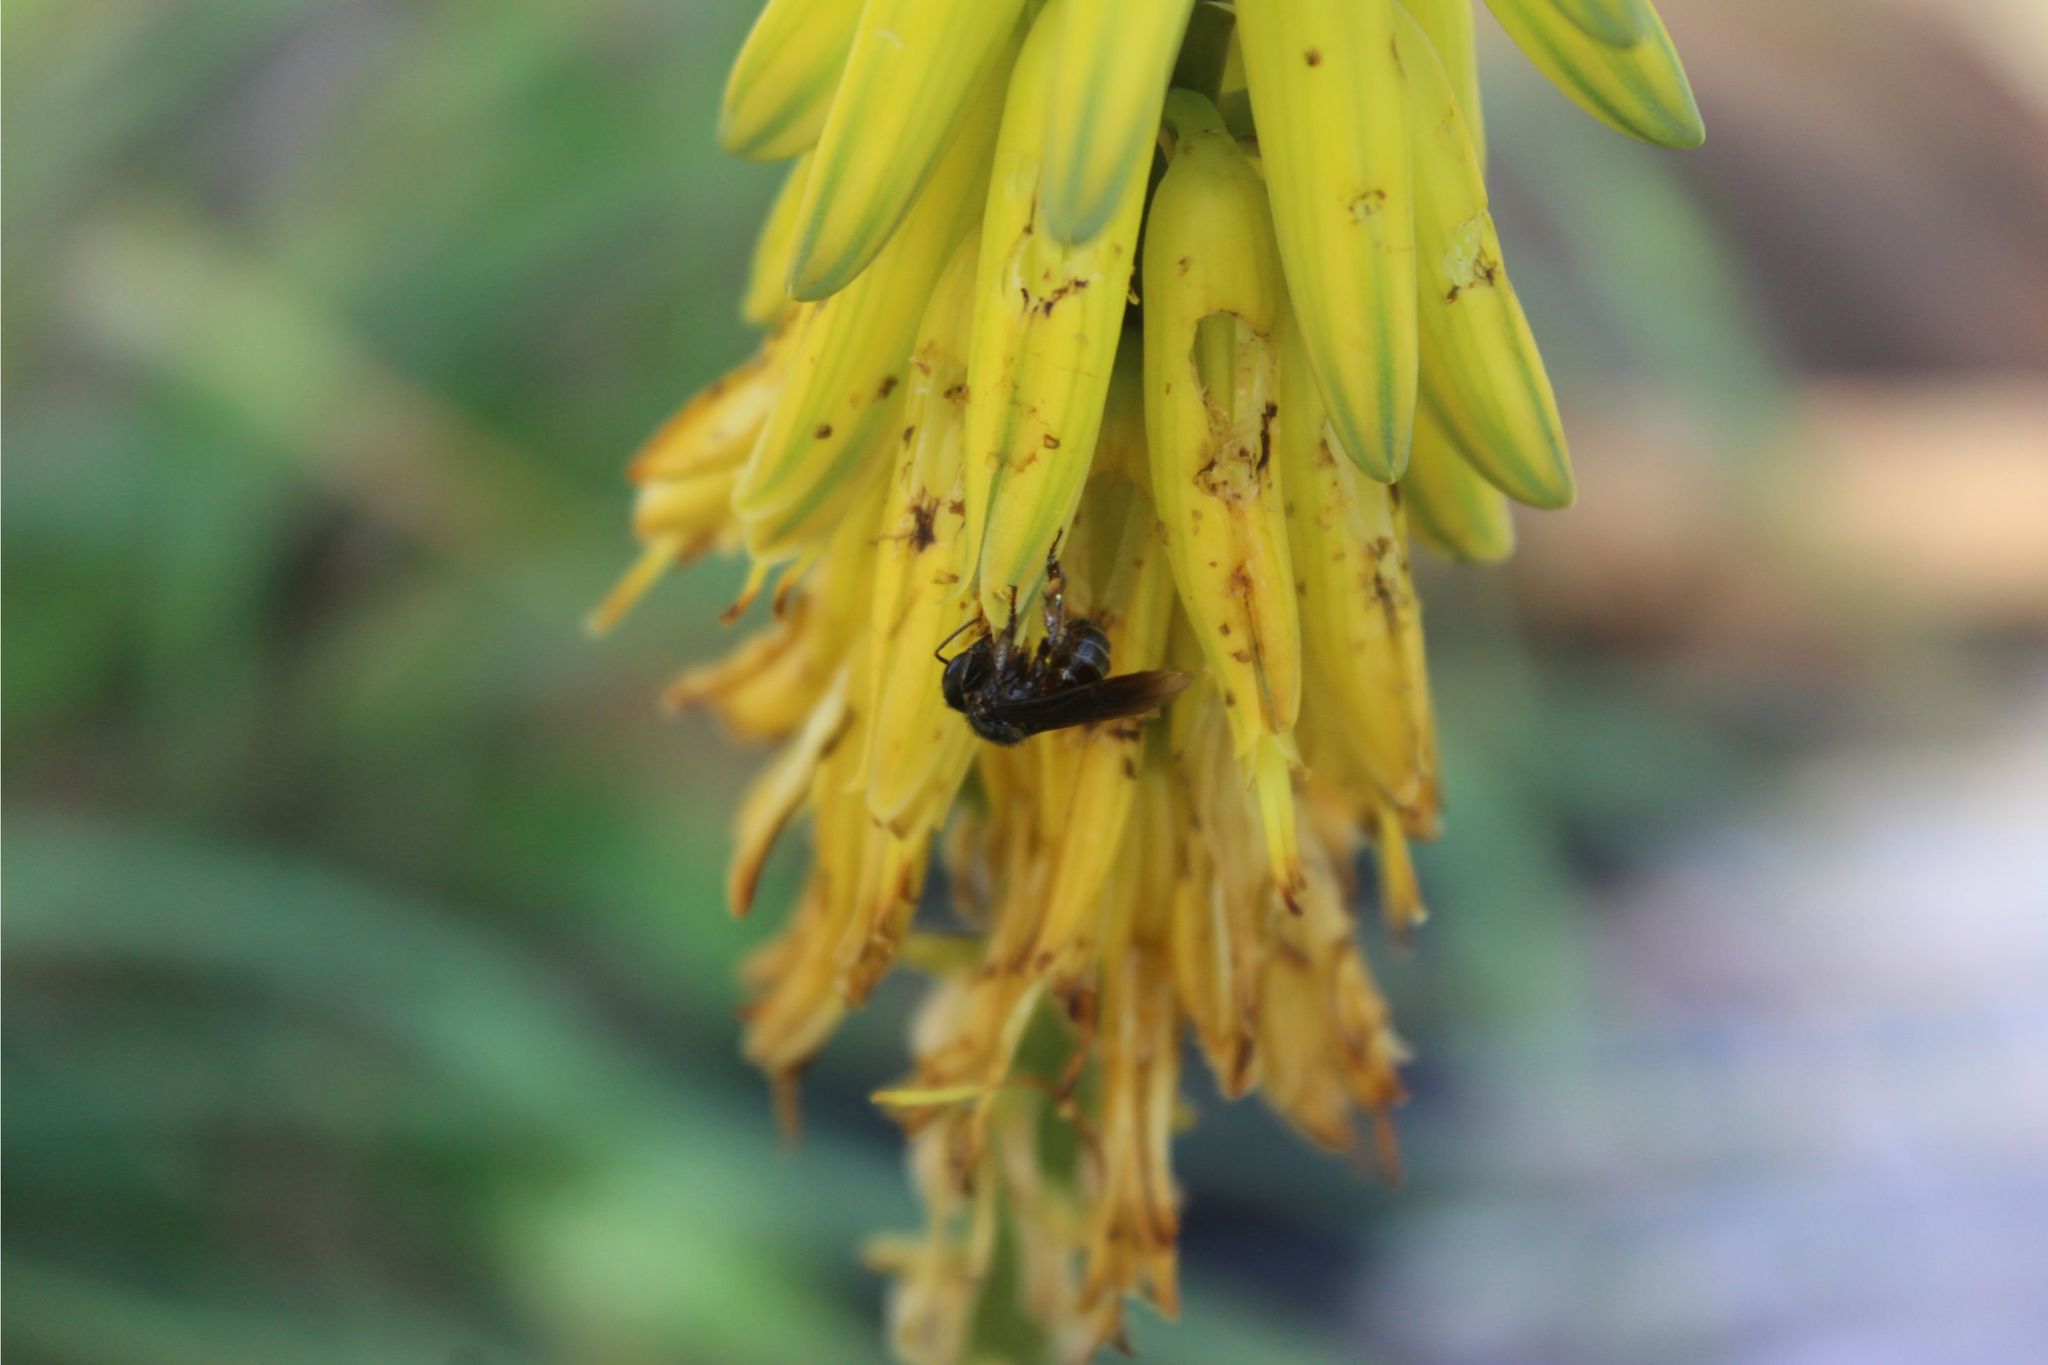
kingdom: Animalia
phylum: Arthropoda
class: Insecta
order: Hymenoptera
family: Apidae
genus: Trigona
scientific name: Trigona
